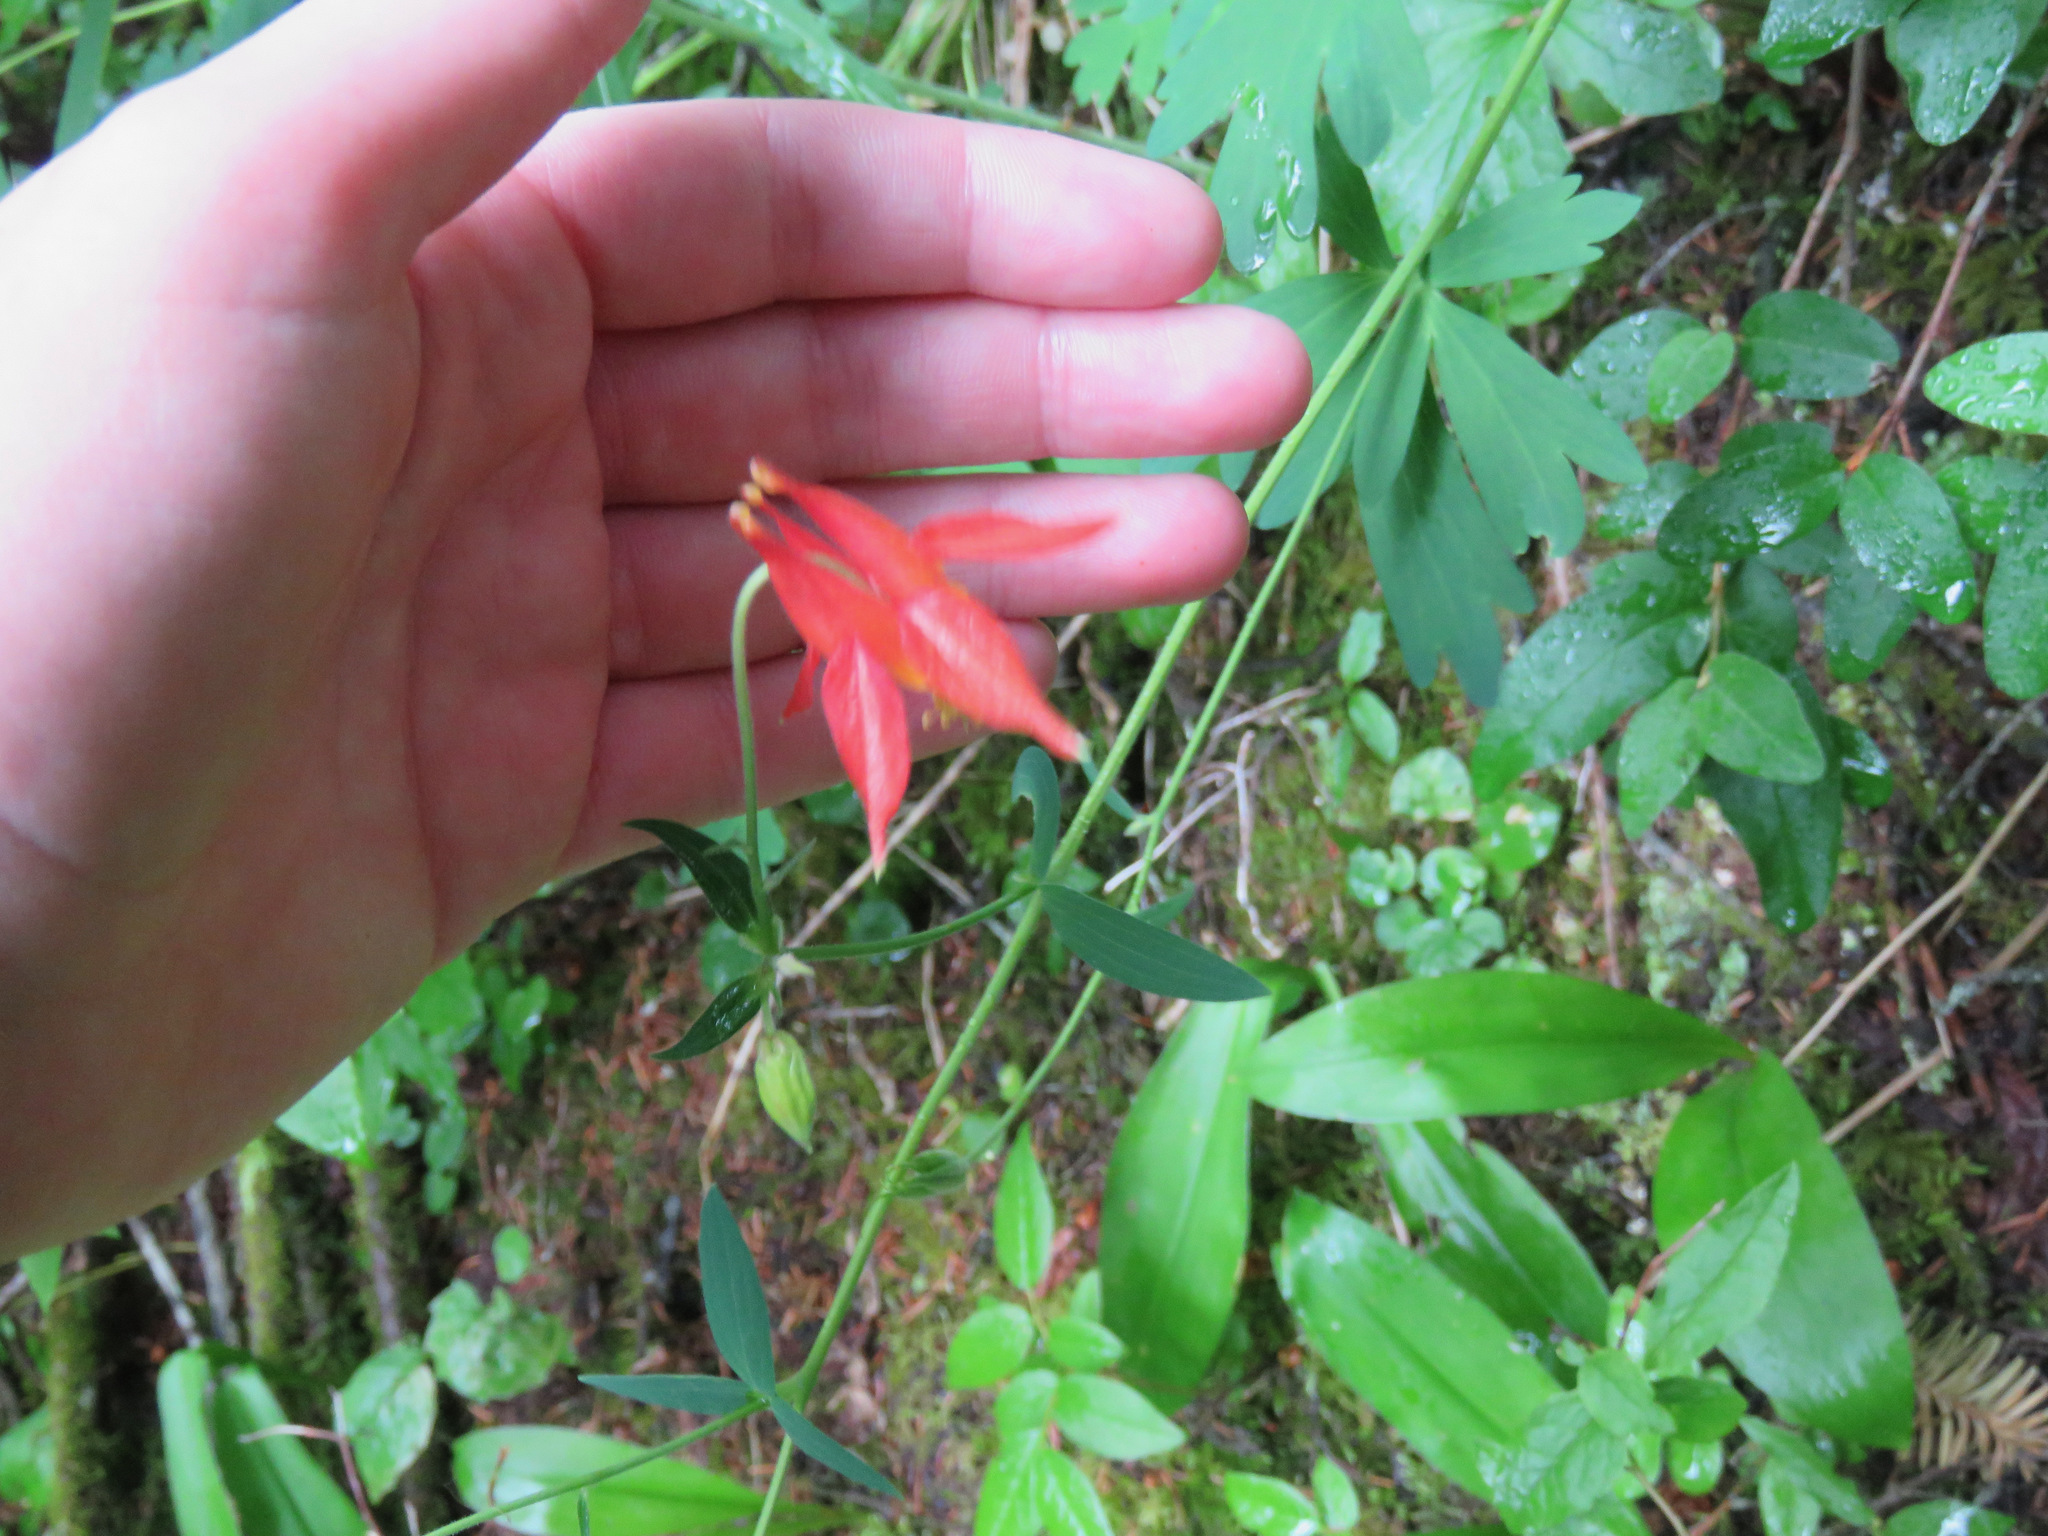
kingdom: Plantae
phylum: Tracheophyta
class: Magnoliopsida
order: Ranunculales
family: Ranunculaceae
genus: Aquilegia
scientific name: Aquilegia formosa
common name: Sitka columbine
